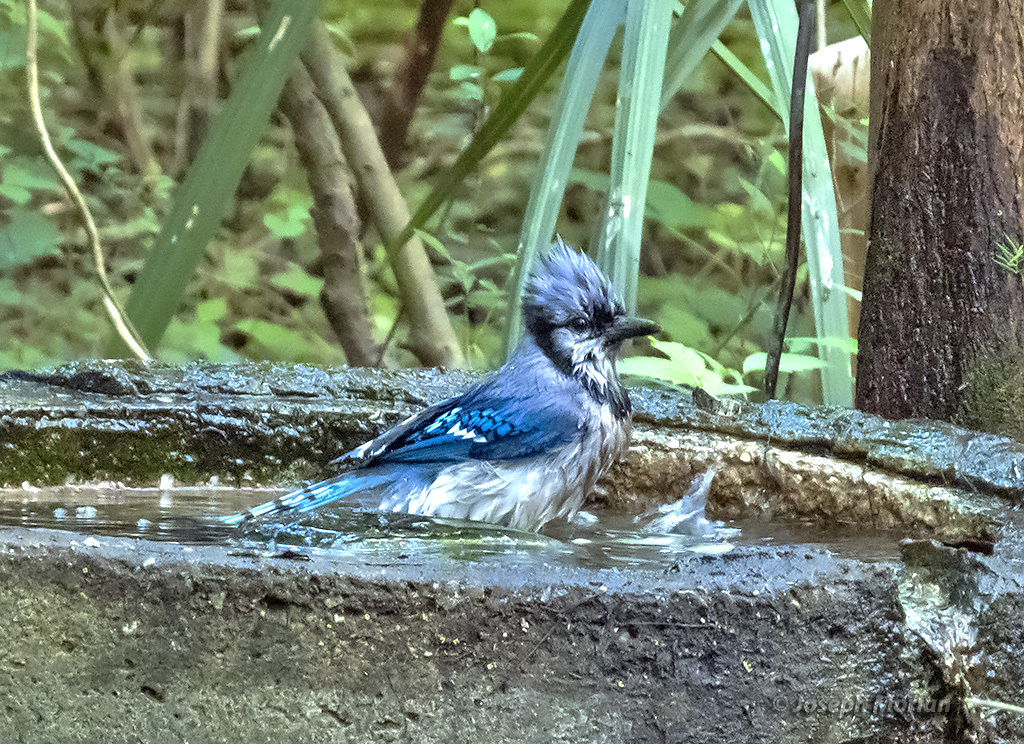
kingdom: Animalia
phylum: Chordata
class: Aves
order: Passeriformes
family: Corvidae
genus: Cyanocitta
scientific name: Cyanocitta cristata
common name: Blue jay
